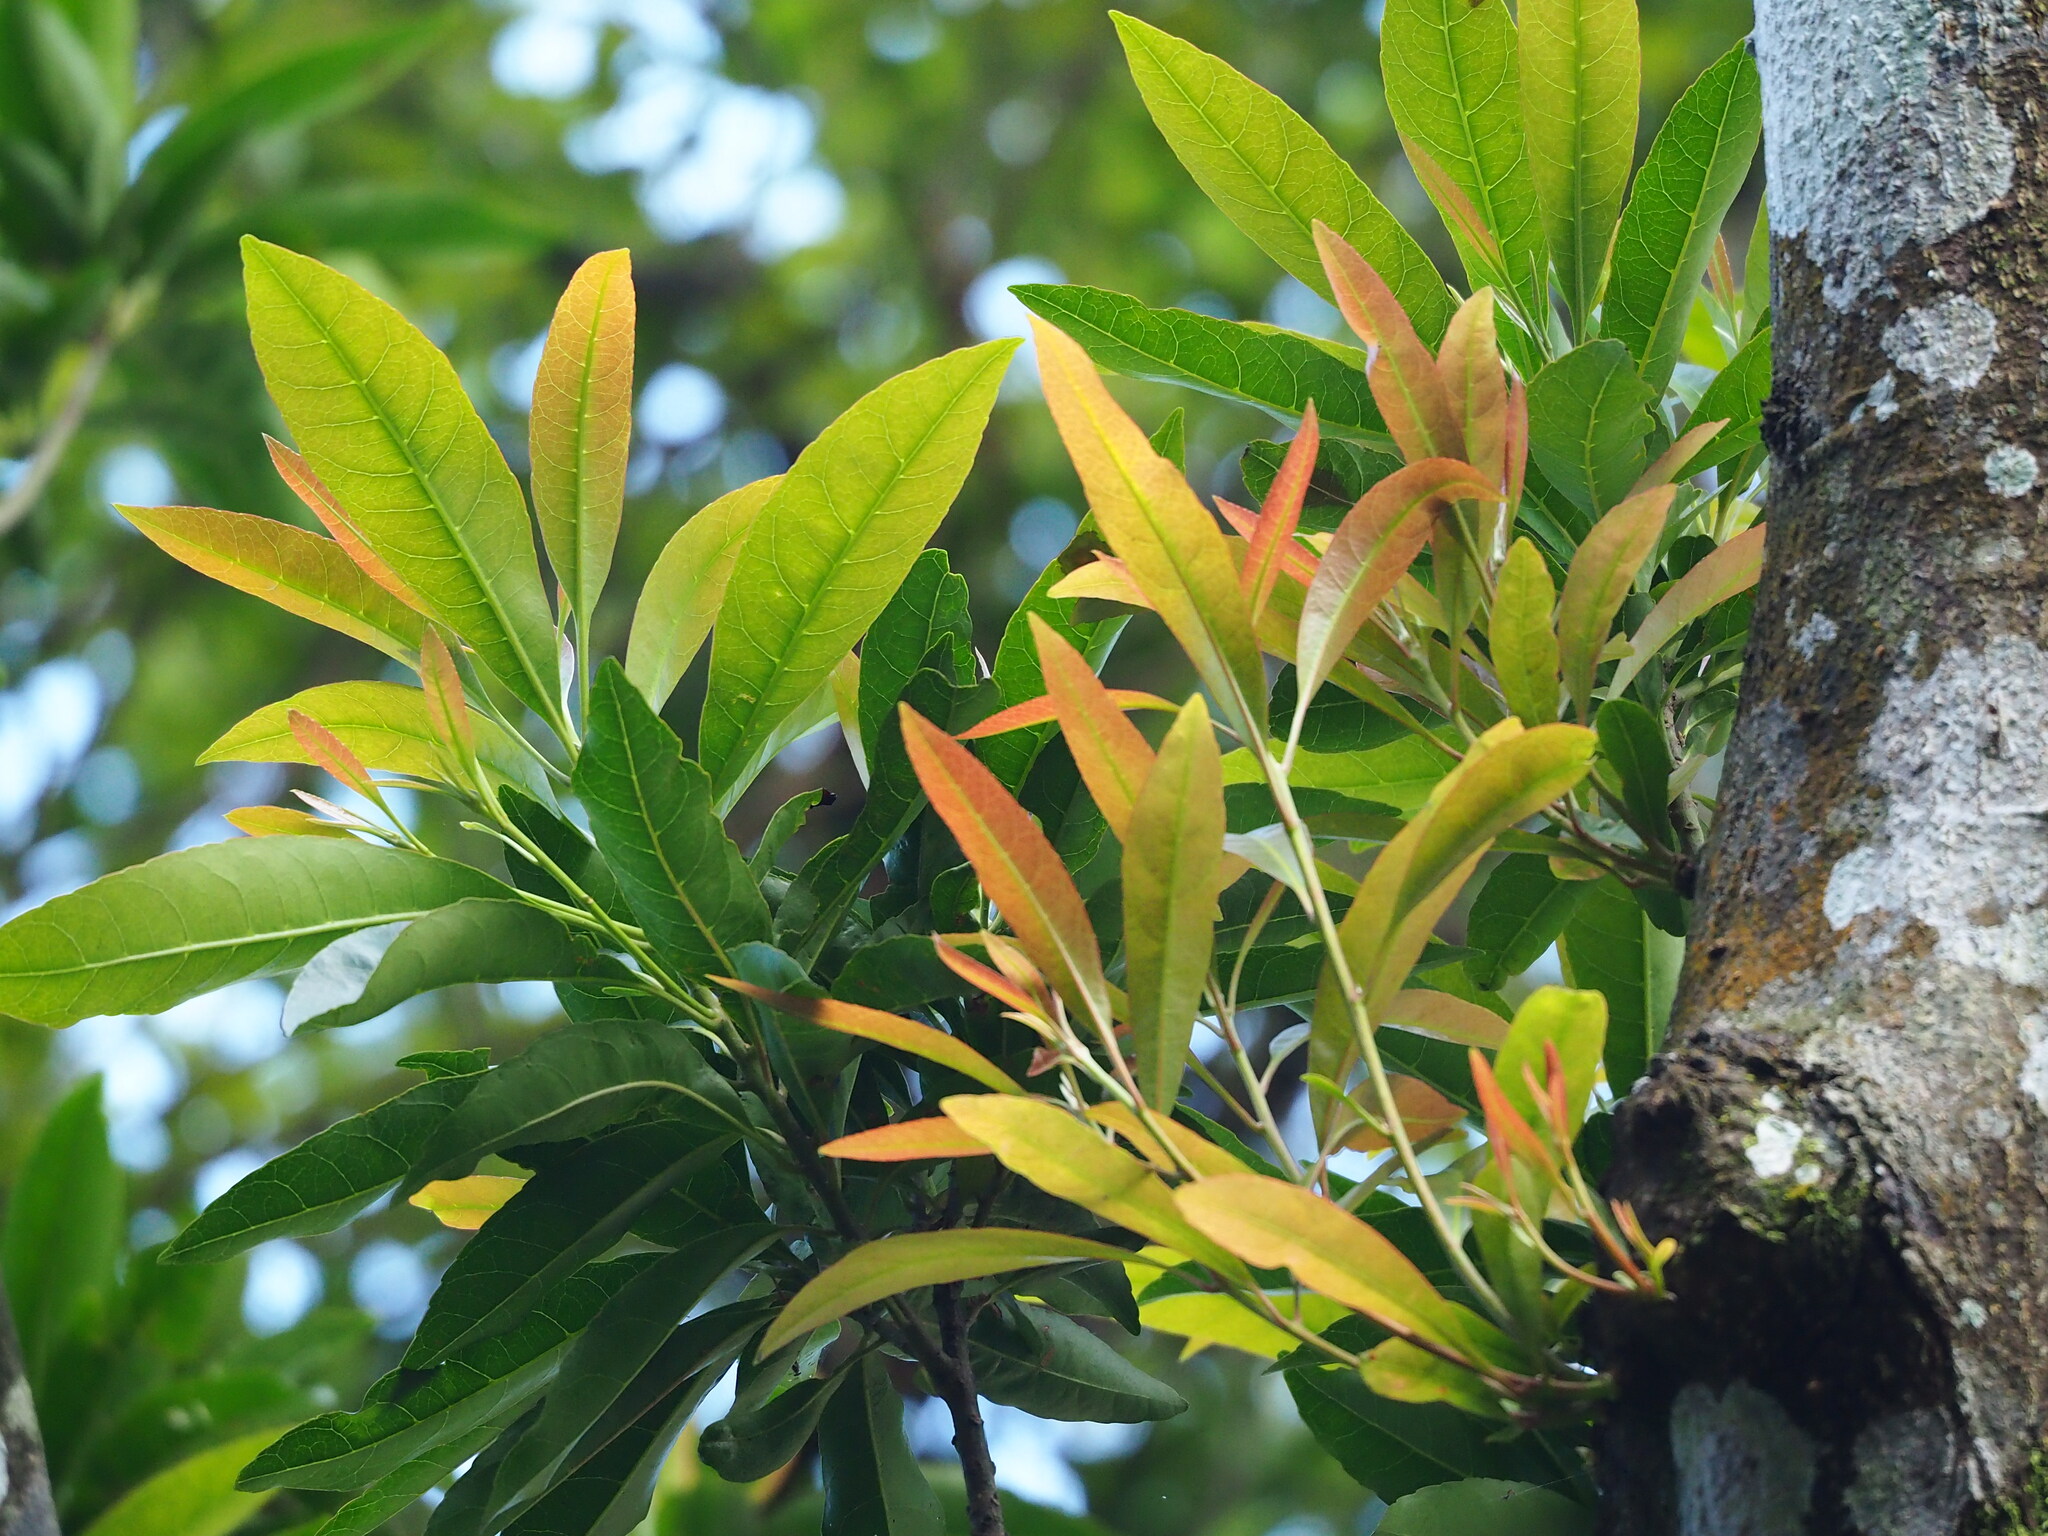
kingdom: Plantae
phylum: Tracheophyta
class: Magnoliopsida
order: Oxalidales
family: Elaeocarpaceae
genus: Elaeocarpus
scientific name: Elaeocarpus decipiens
